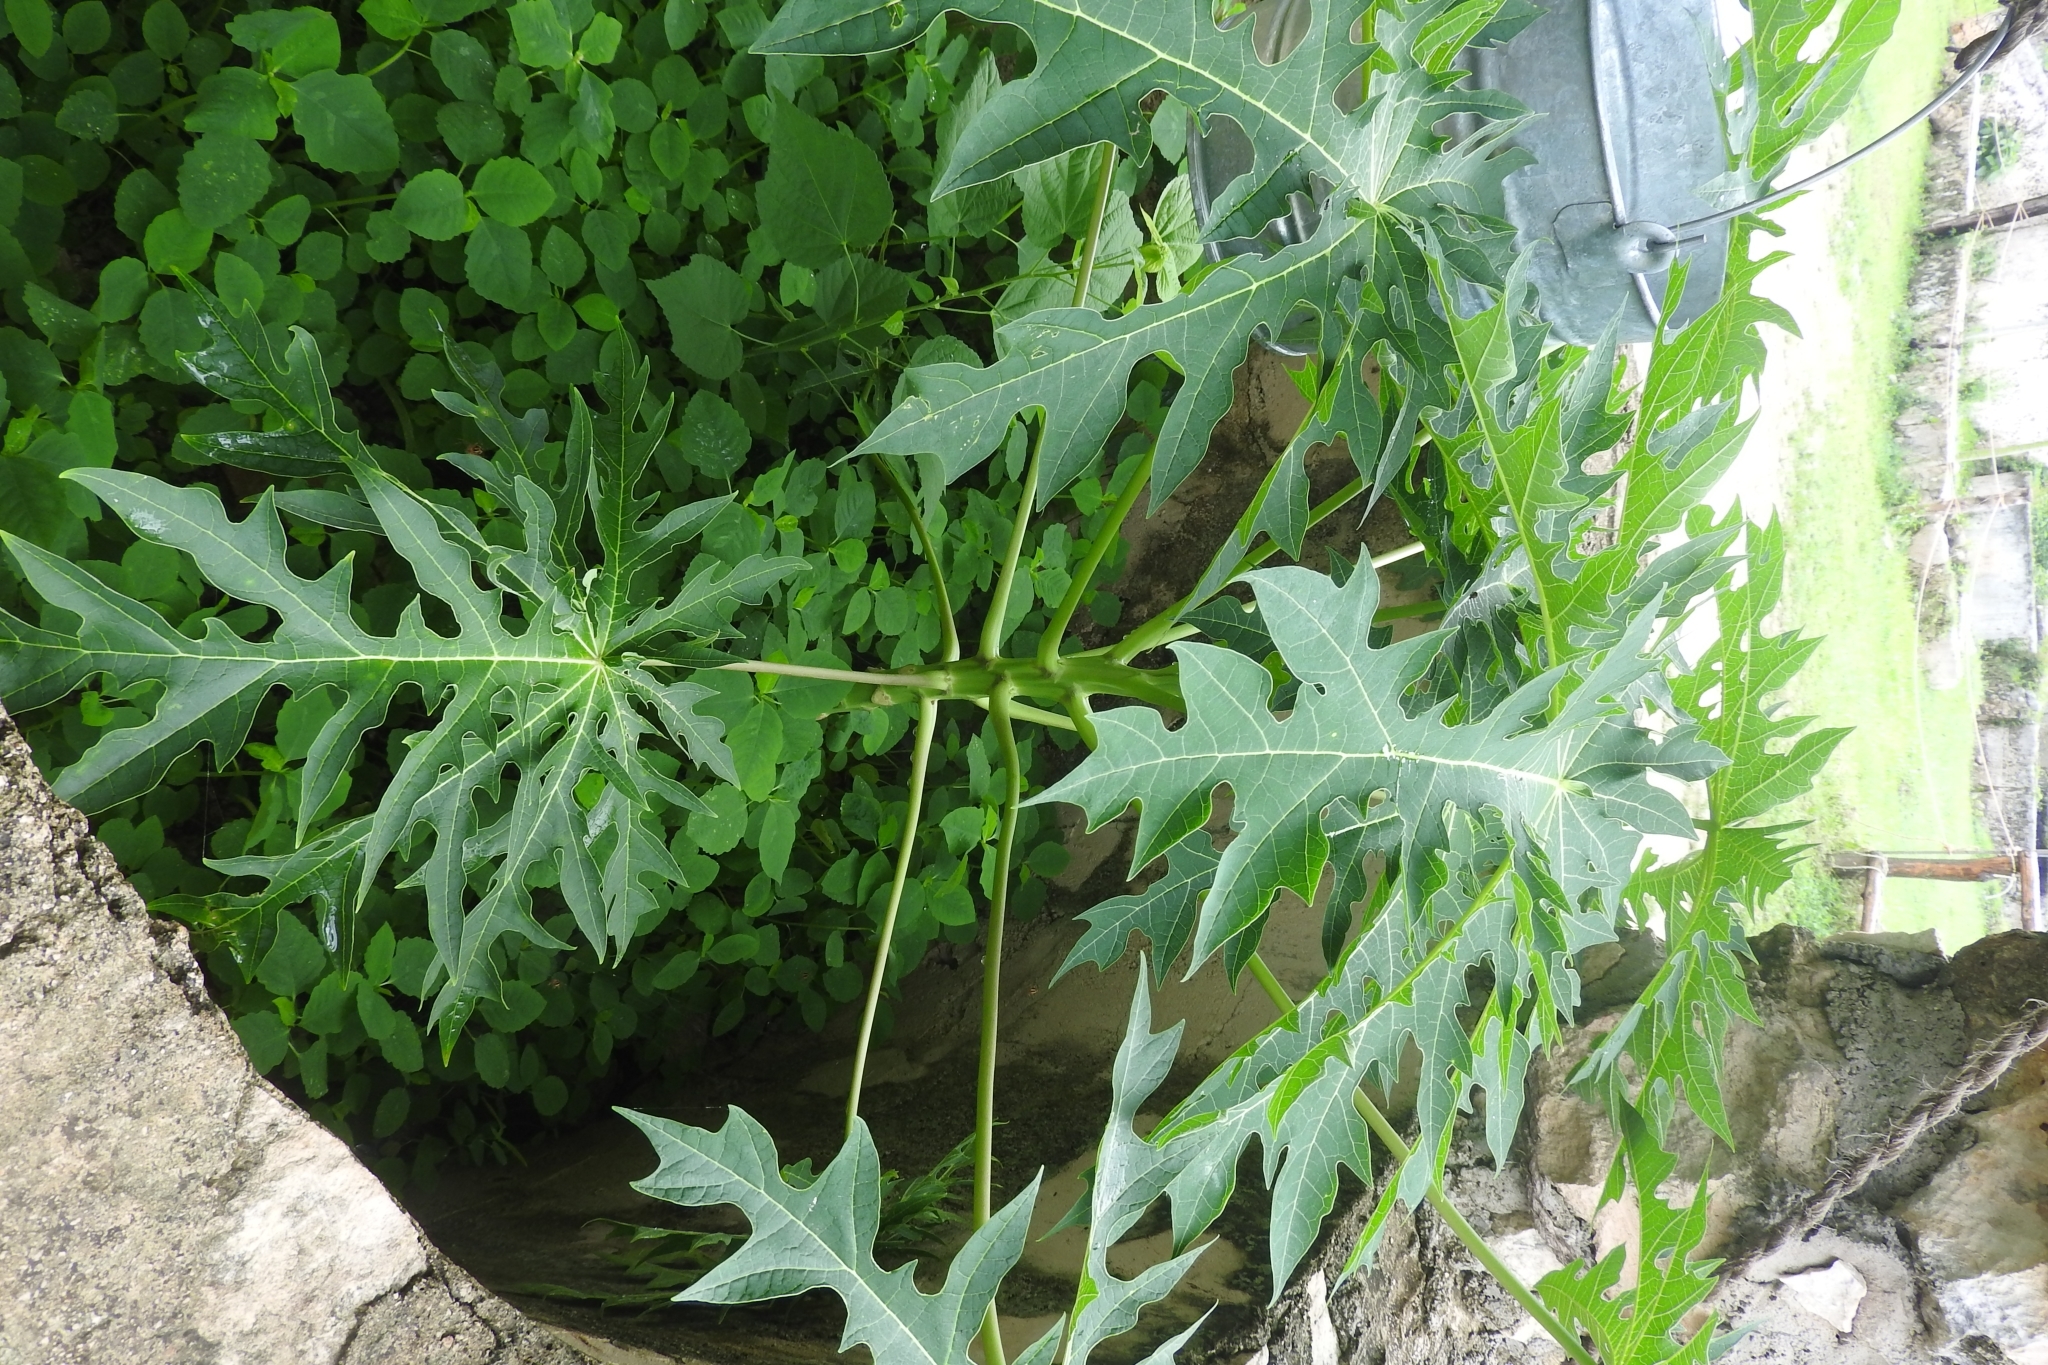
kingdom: Plantae
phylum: Tracheophyta
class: Magnoliopsida
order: Brassicales
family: Caricaceae
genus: Carica
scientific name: Carica papaya
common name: Papaya
